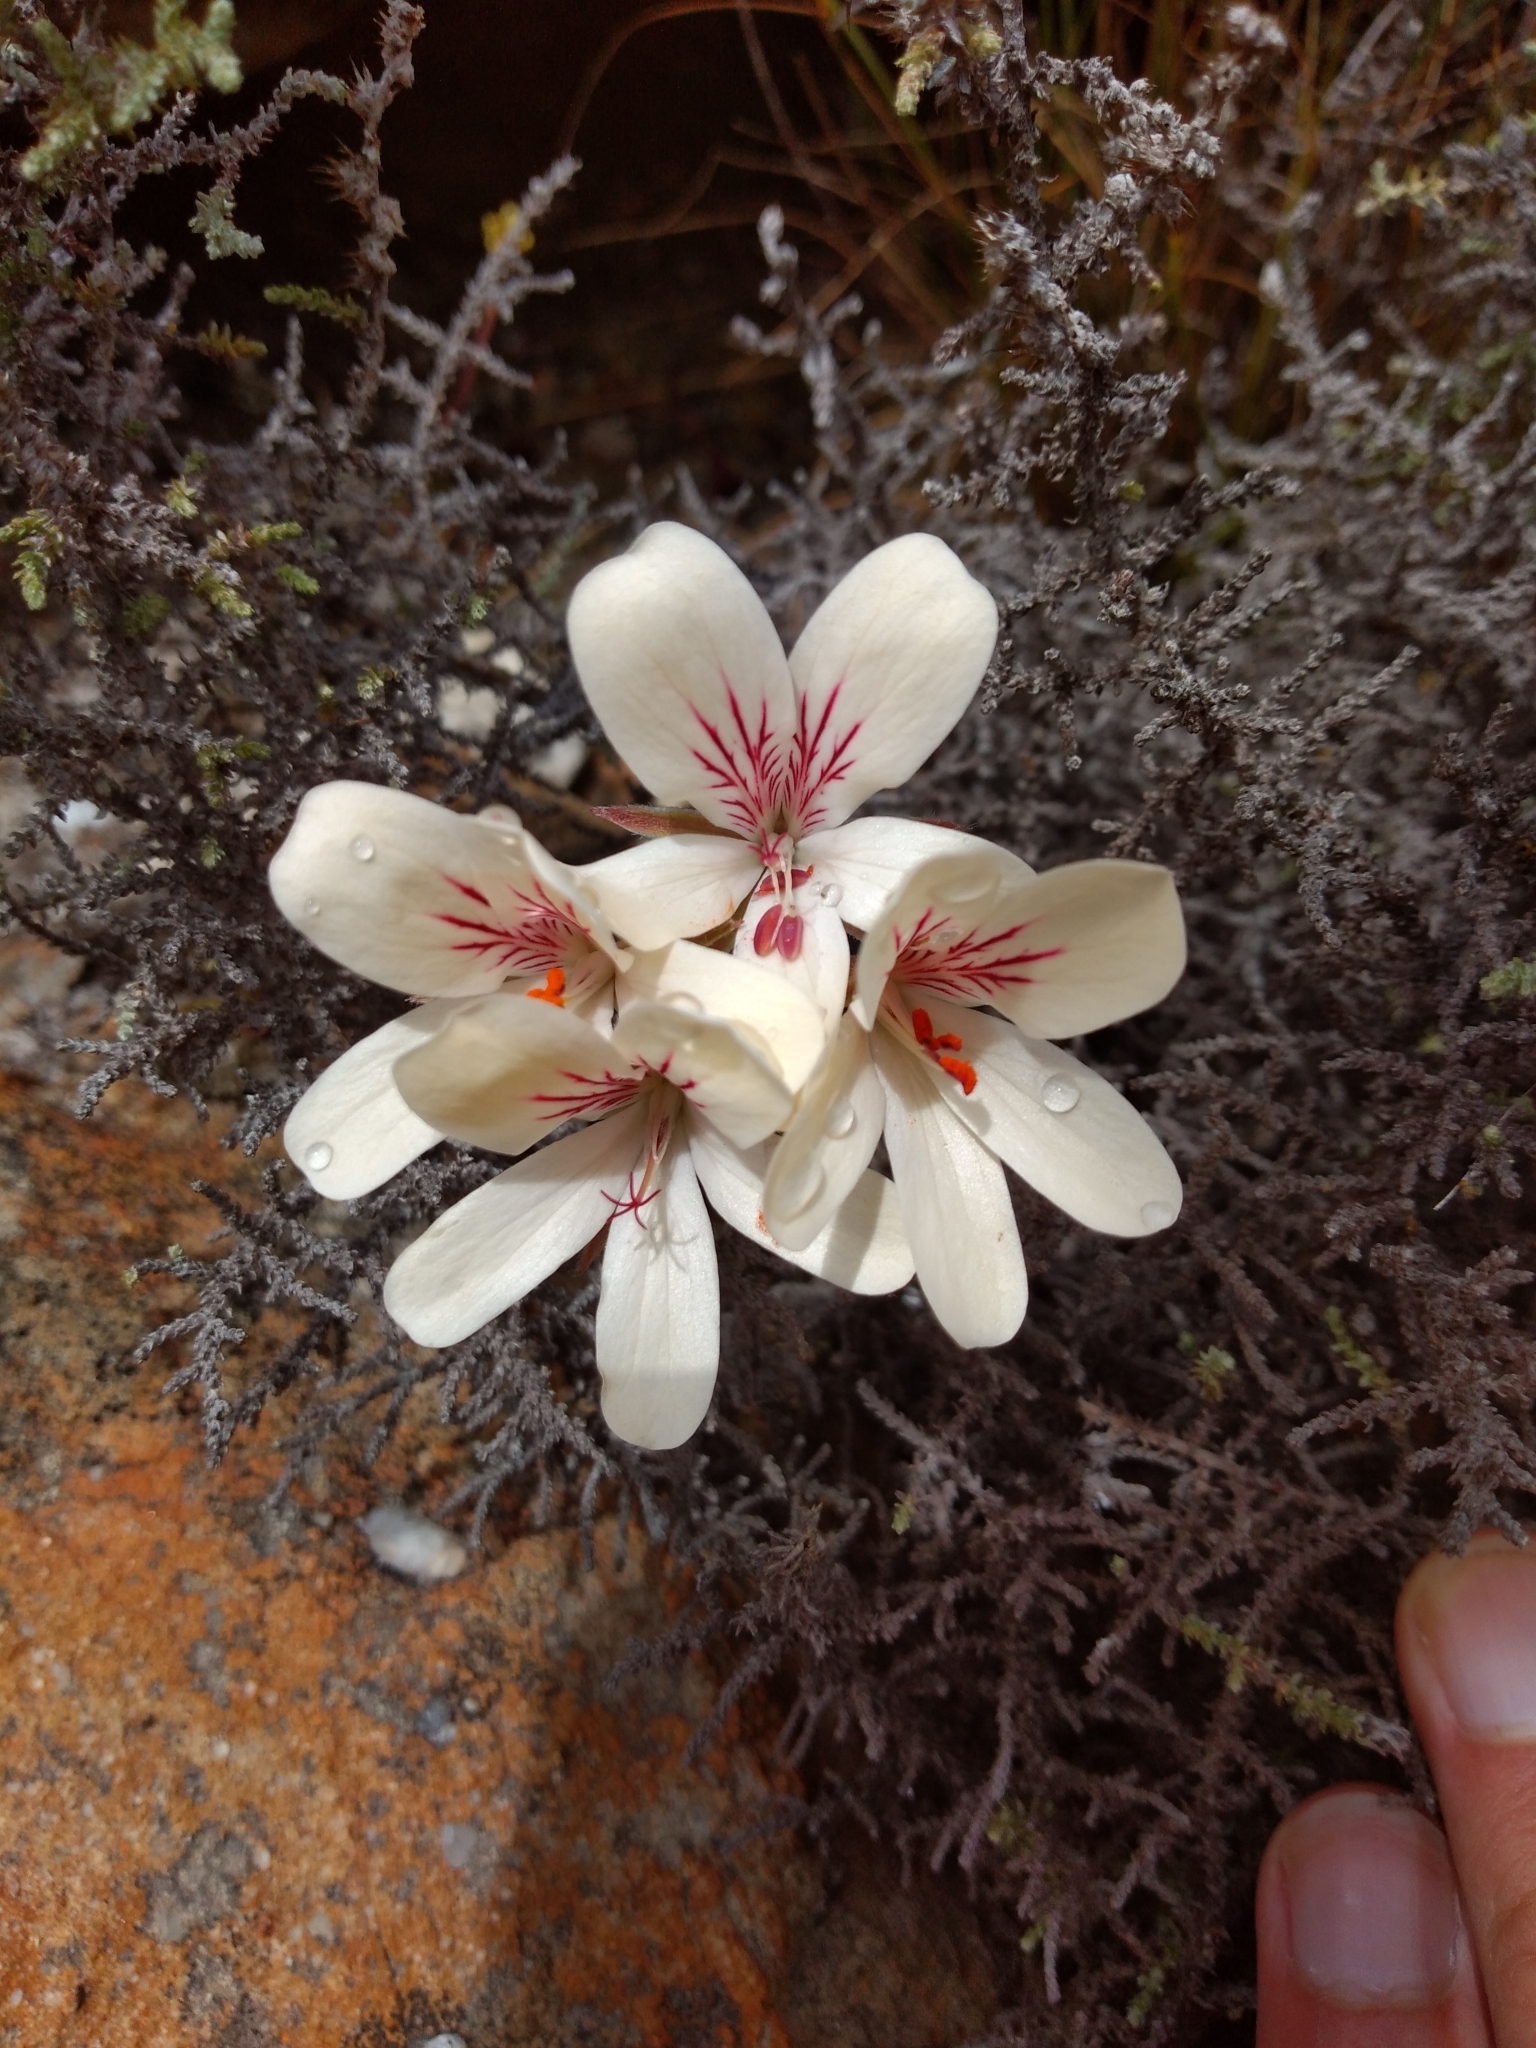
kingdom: Plantae
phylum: Tracheophyta
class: Magnoliopsida
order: Geraniales
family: Geraniaceae
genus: Pelargonium
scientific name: Pelargonium radiatum
